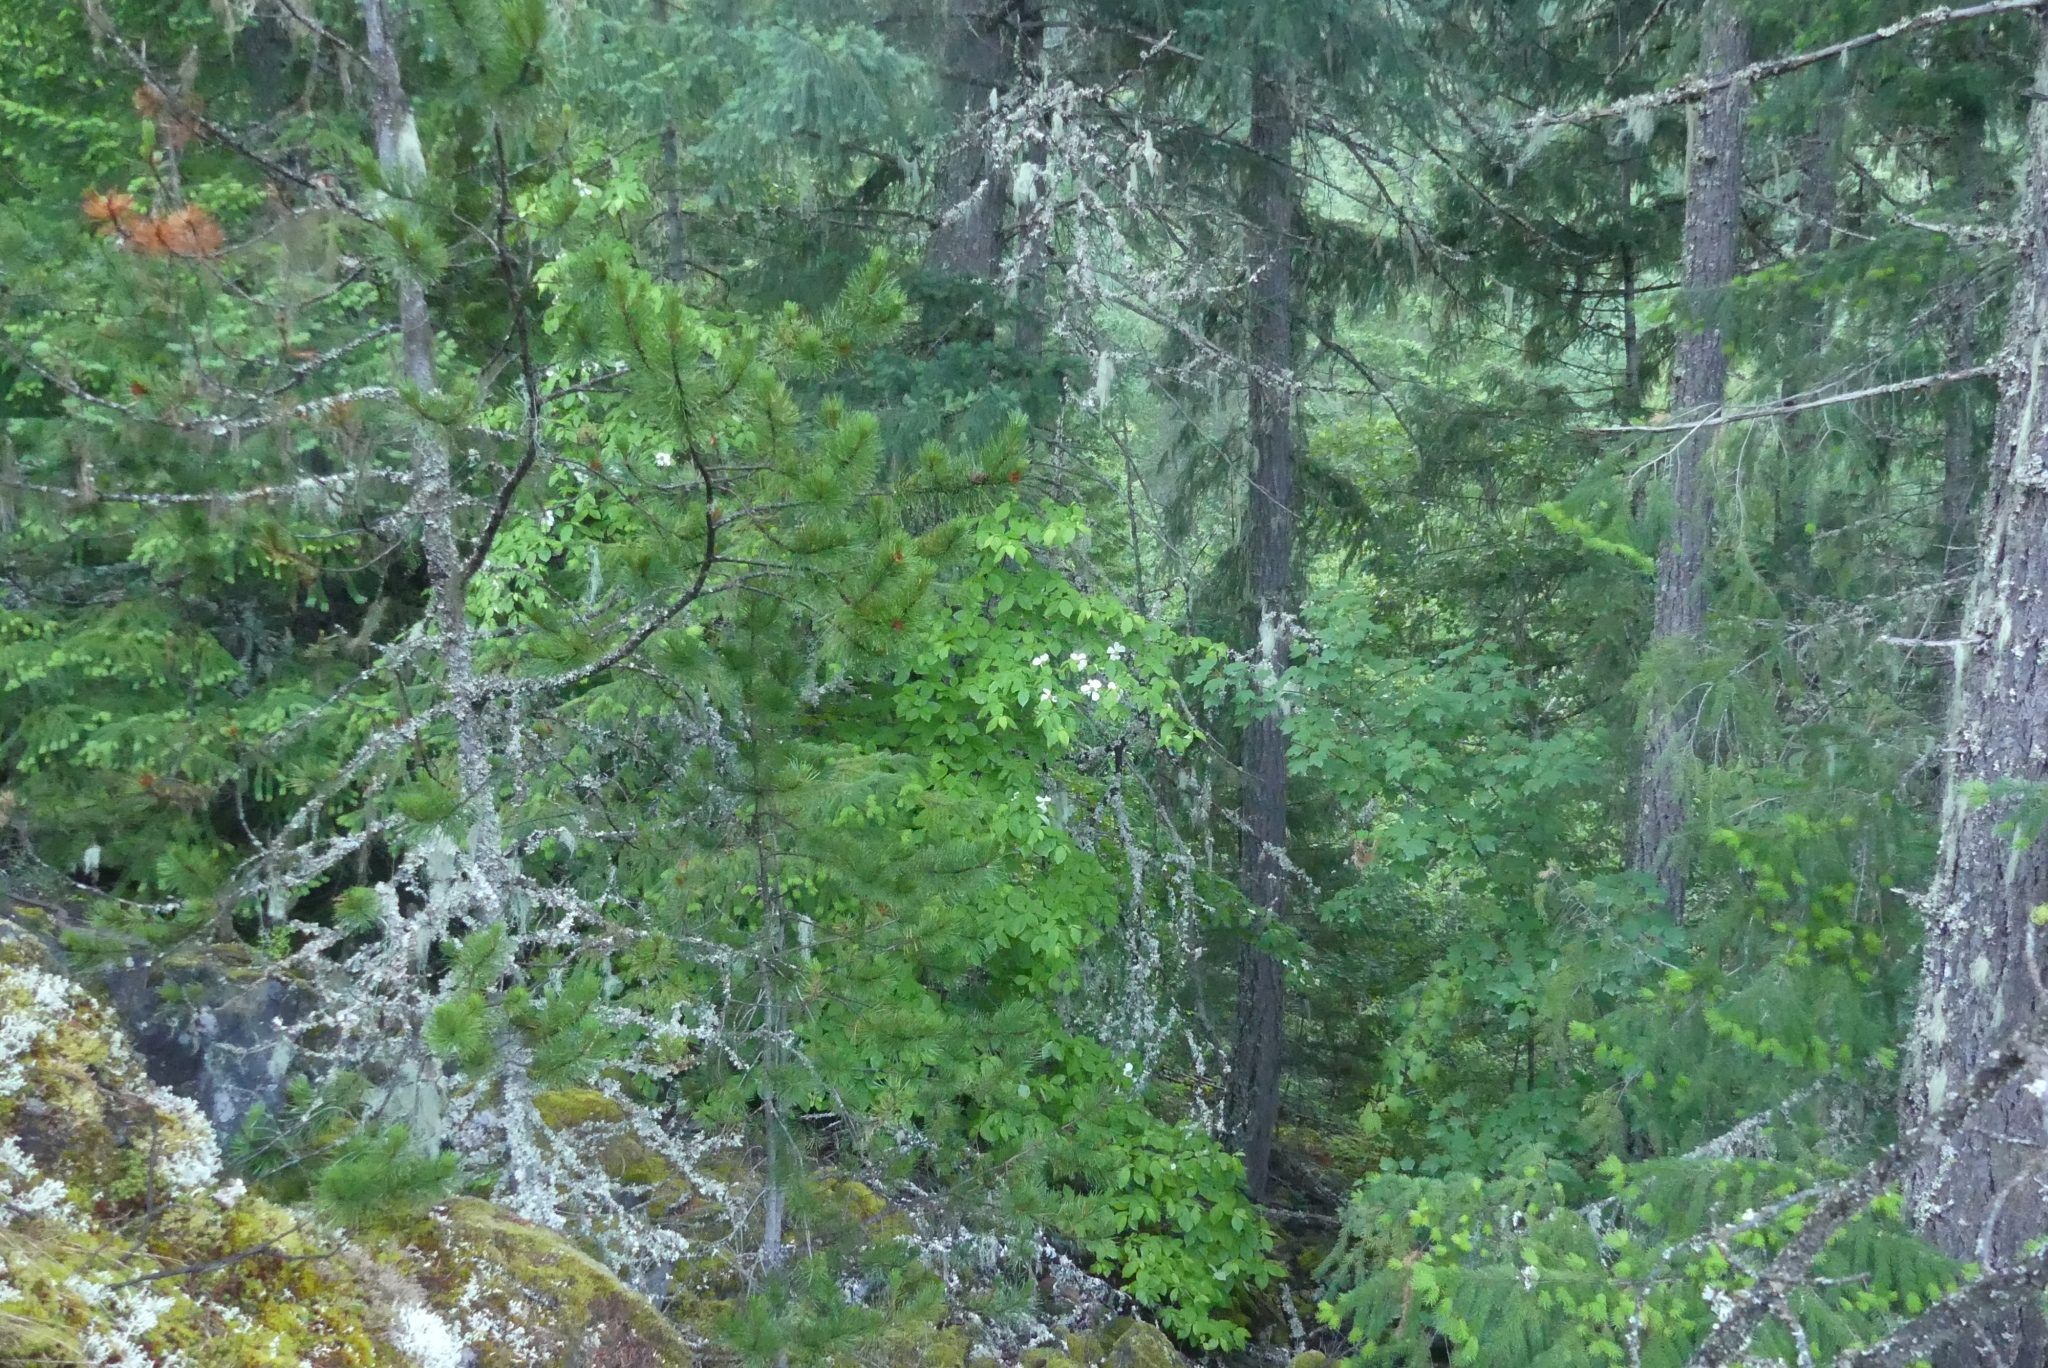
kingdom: Plantae
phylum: Tracheophyta
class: Magnoliopsida
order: Cornales
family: Cornaceae
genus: Cornus
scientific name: Cornus nuttallii
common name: Pacific dogwood
